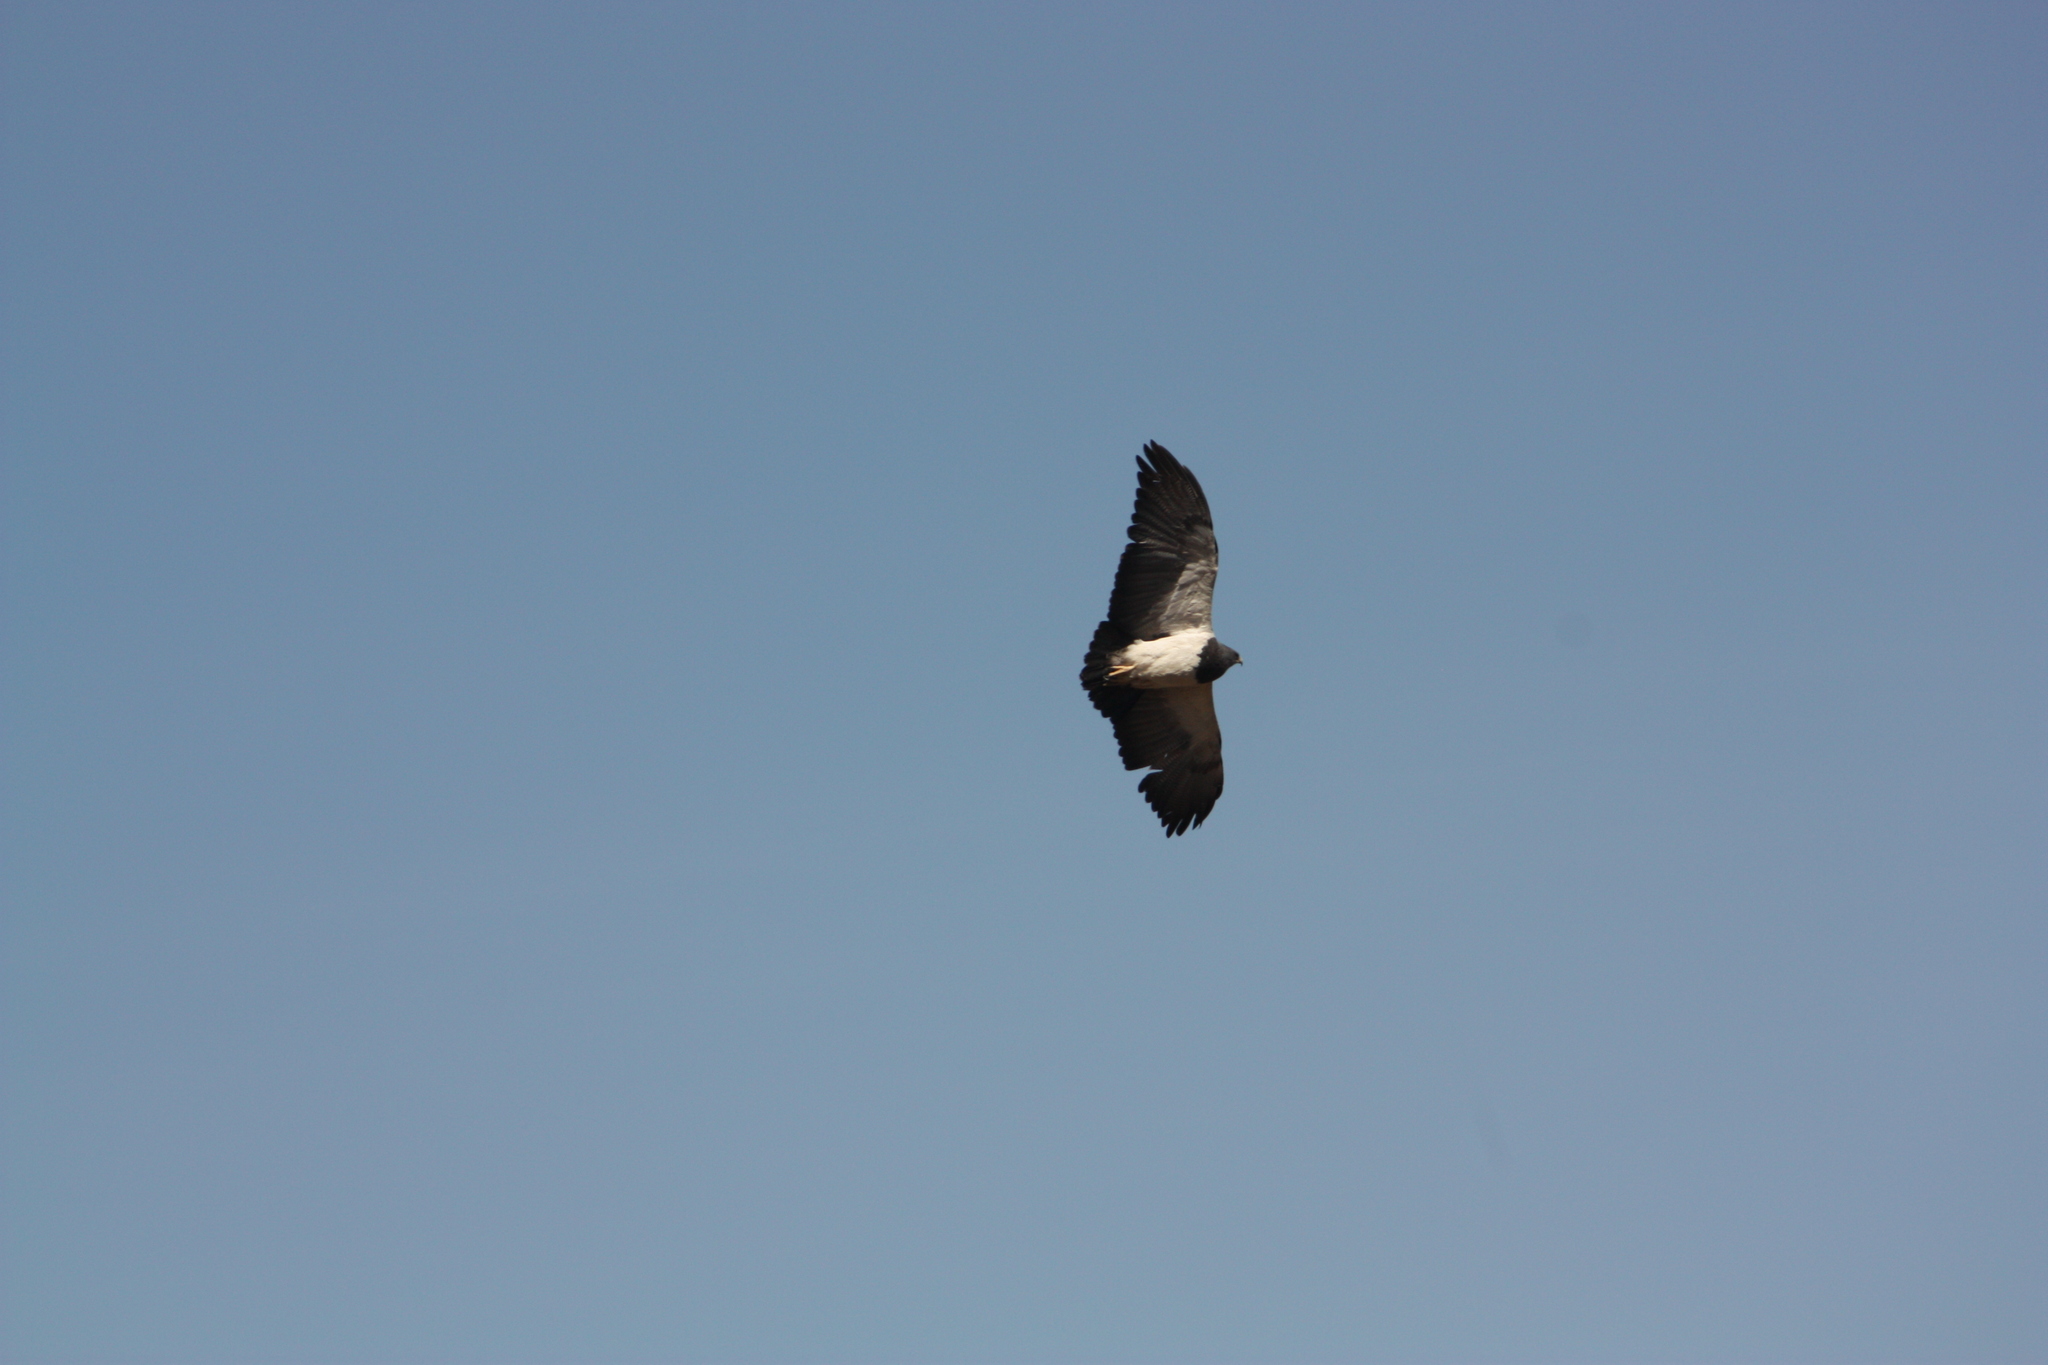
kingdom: Animalia
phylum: Chordata
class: Aves
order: Accipitriformes
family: Accipitridae
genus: Geranoaetus
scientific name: Geranoaetus melanoleucus
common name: Black-chested buzzard-eagle
